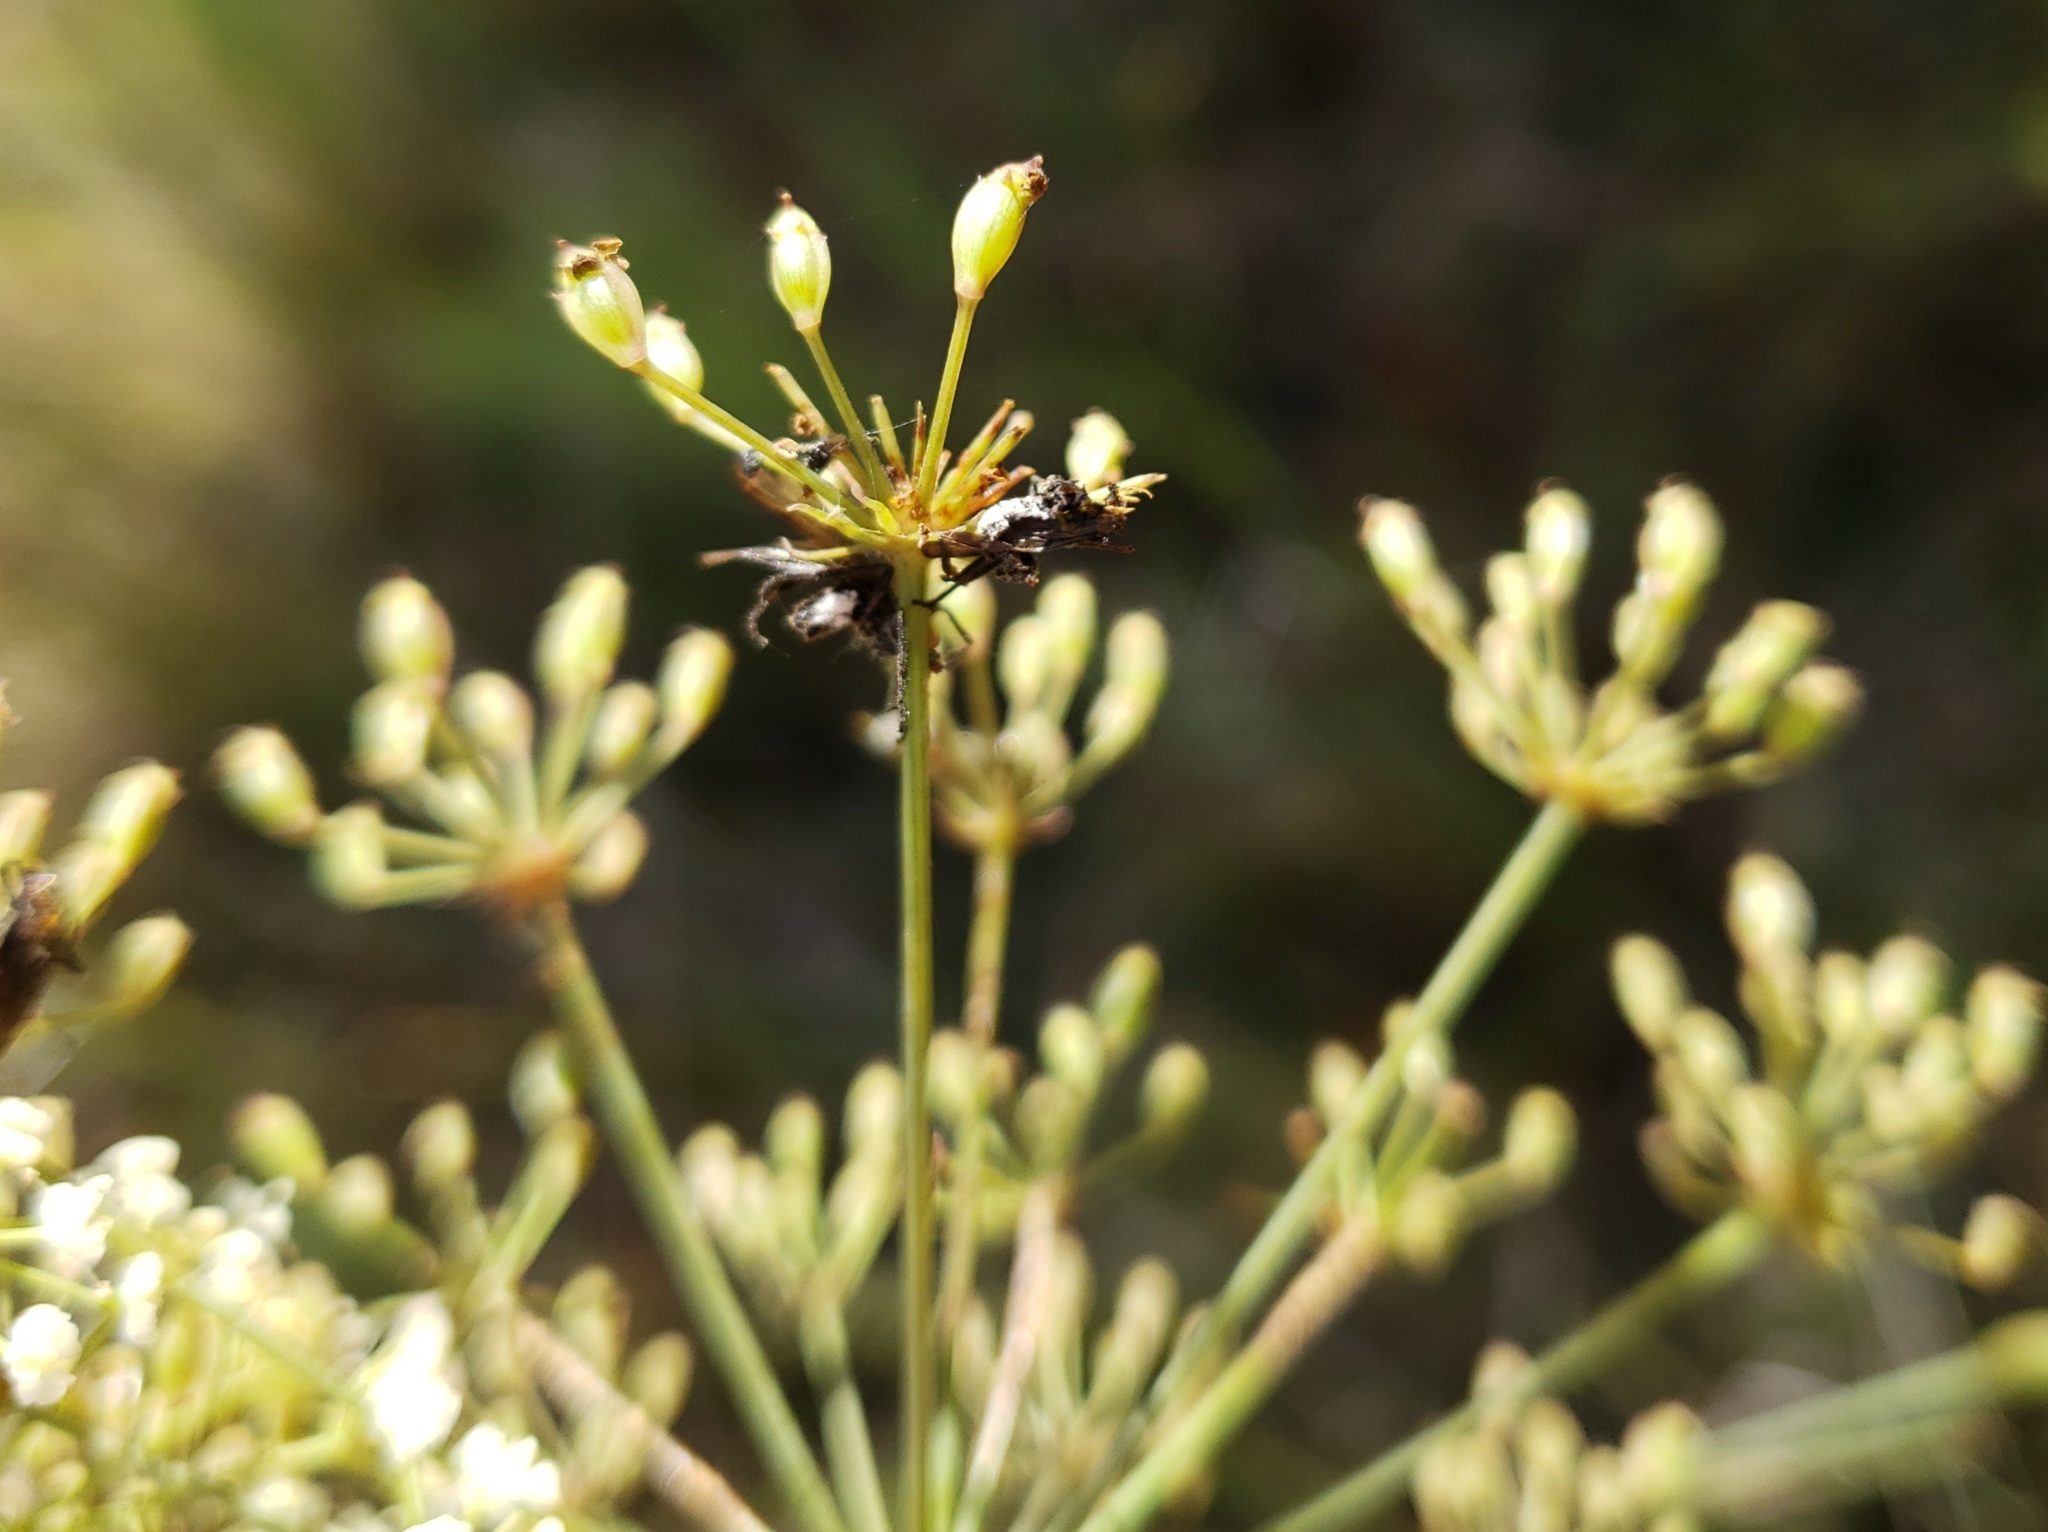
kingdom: Plantae
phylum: Tracheophyta
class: Magnoliopsida
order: Apiales
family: Apiaceae
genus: Tiedemannia
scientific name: Tiedemannia filiformis
